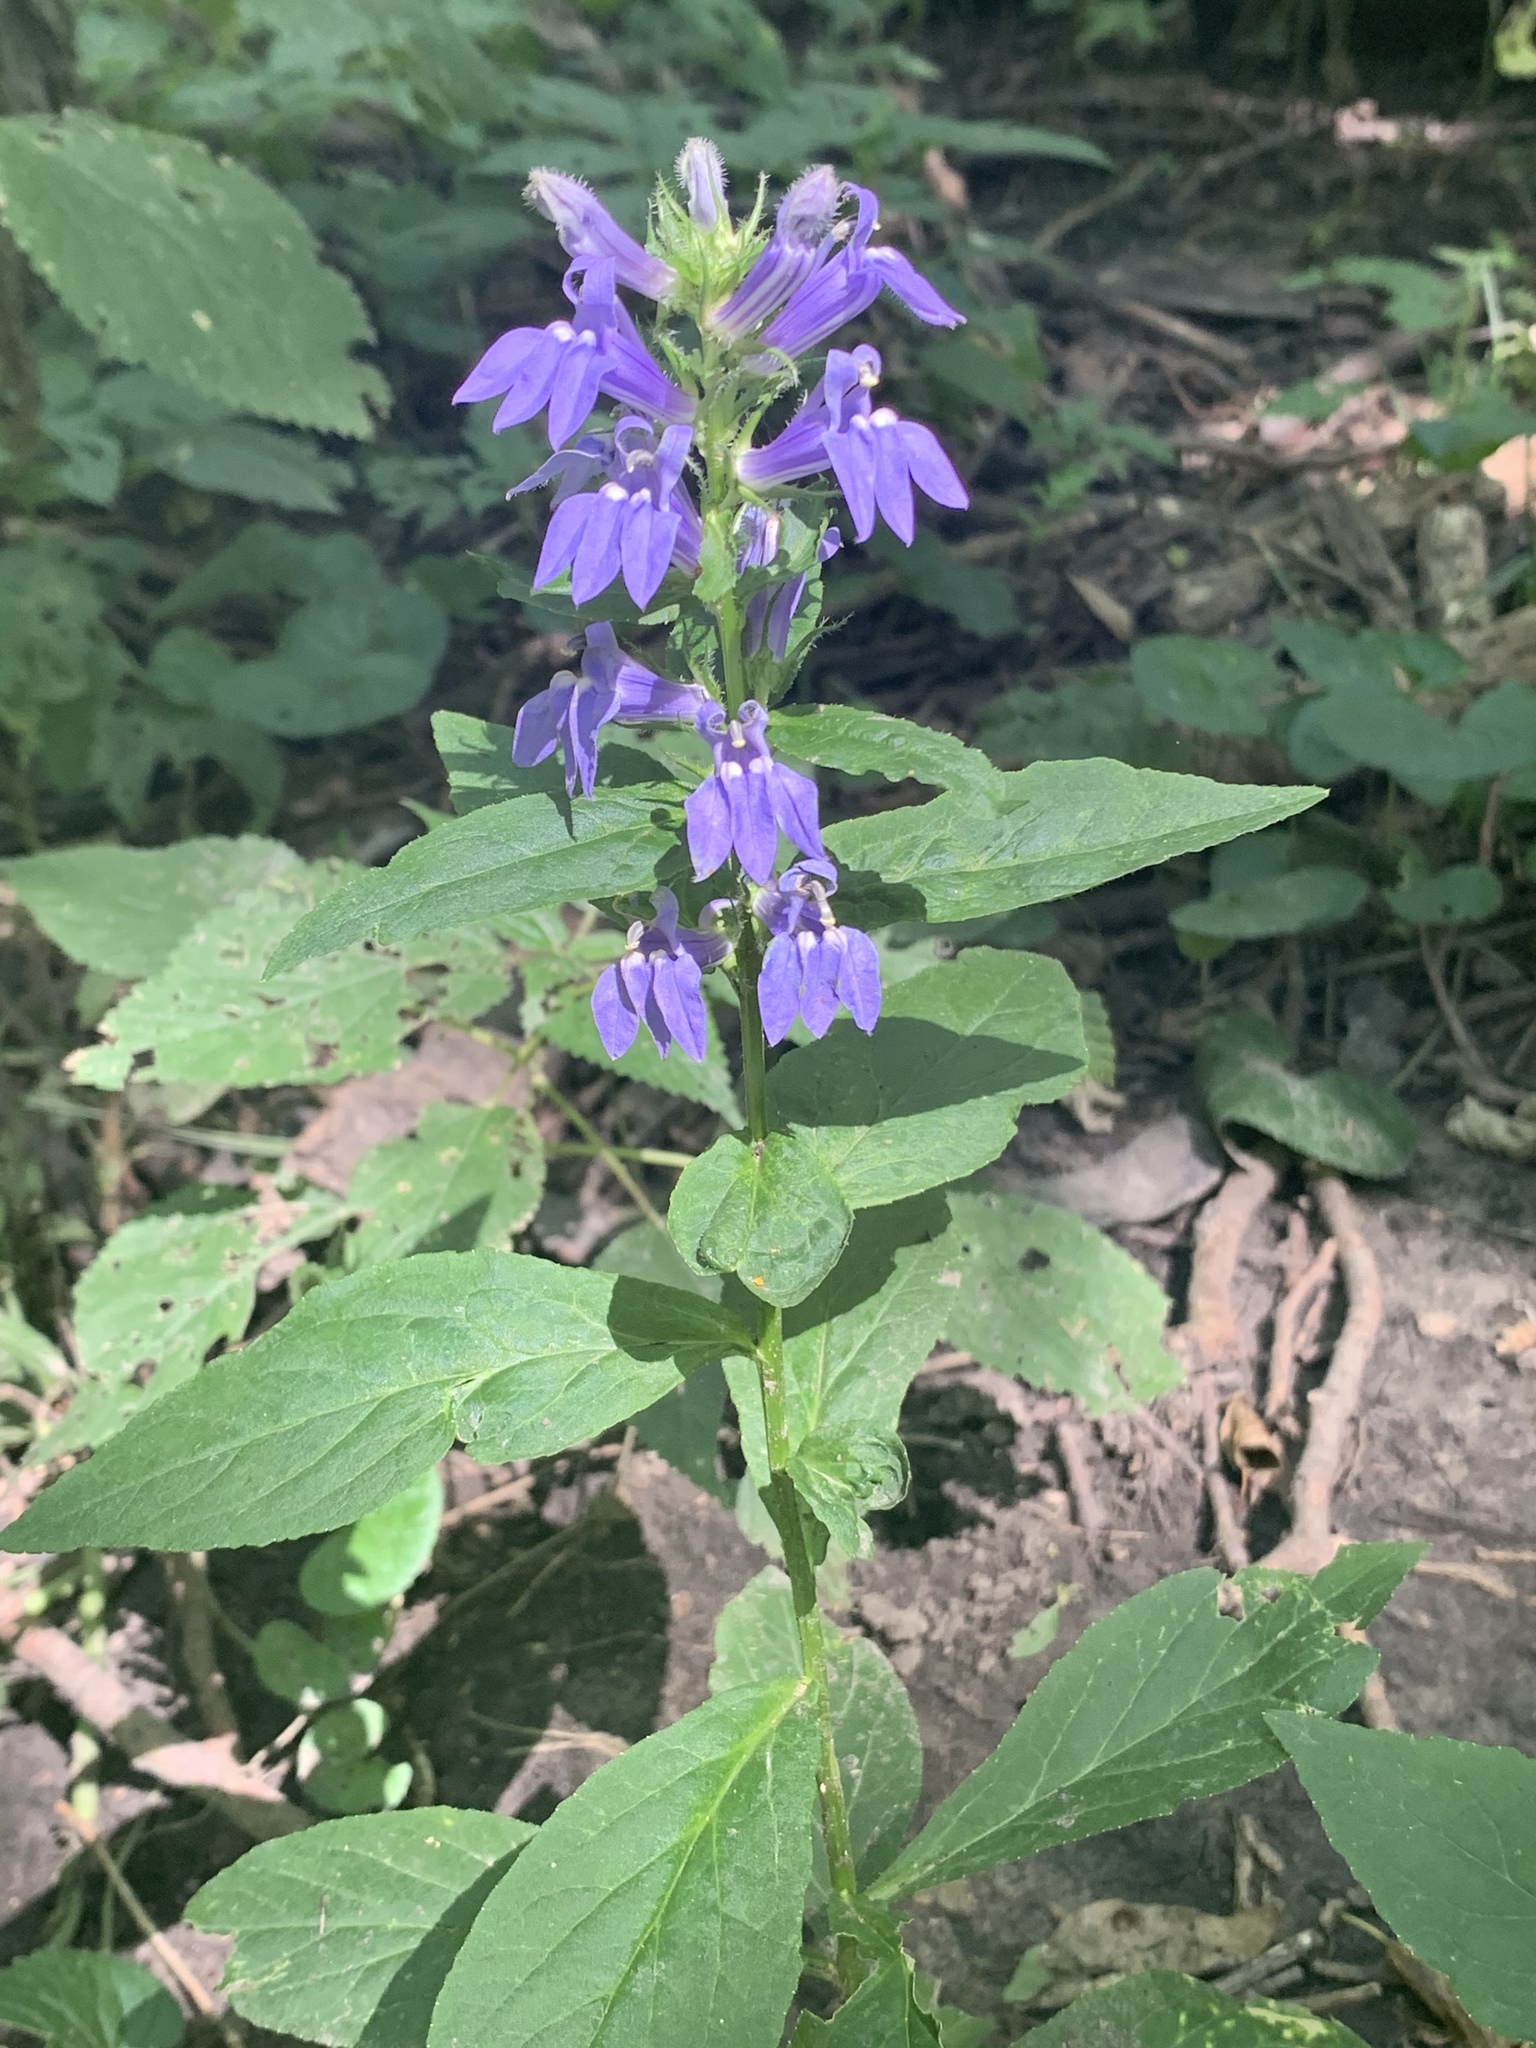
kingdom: Plantae
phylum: Tracheophyta
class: Magnoliopsida
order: Asterales
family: Campanulaceae
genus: Lobelia
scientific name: Lobelia siphilitica
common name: Great lobelia
